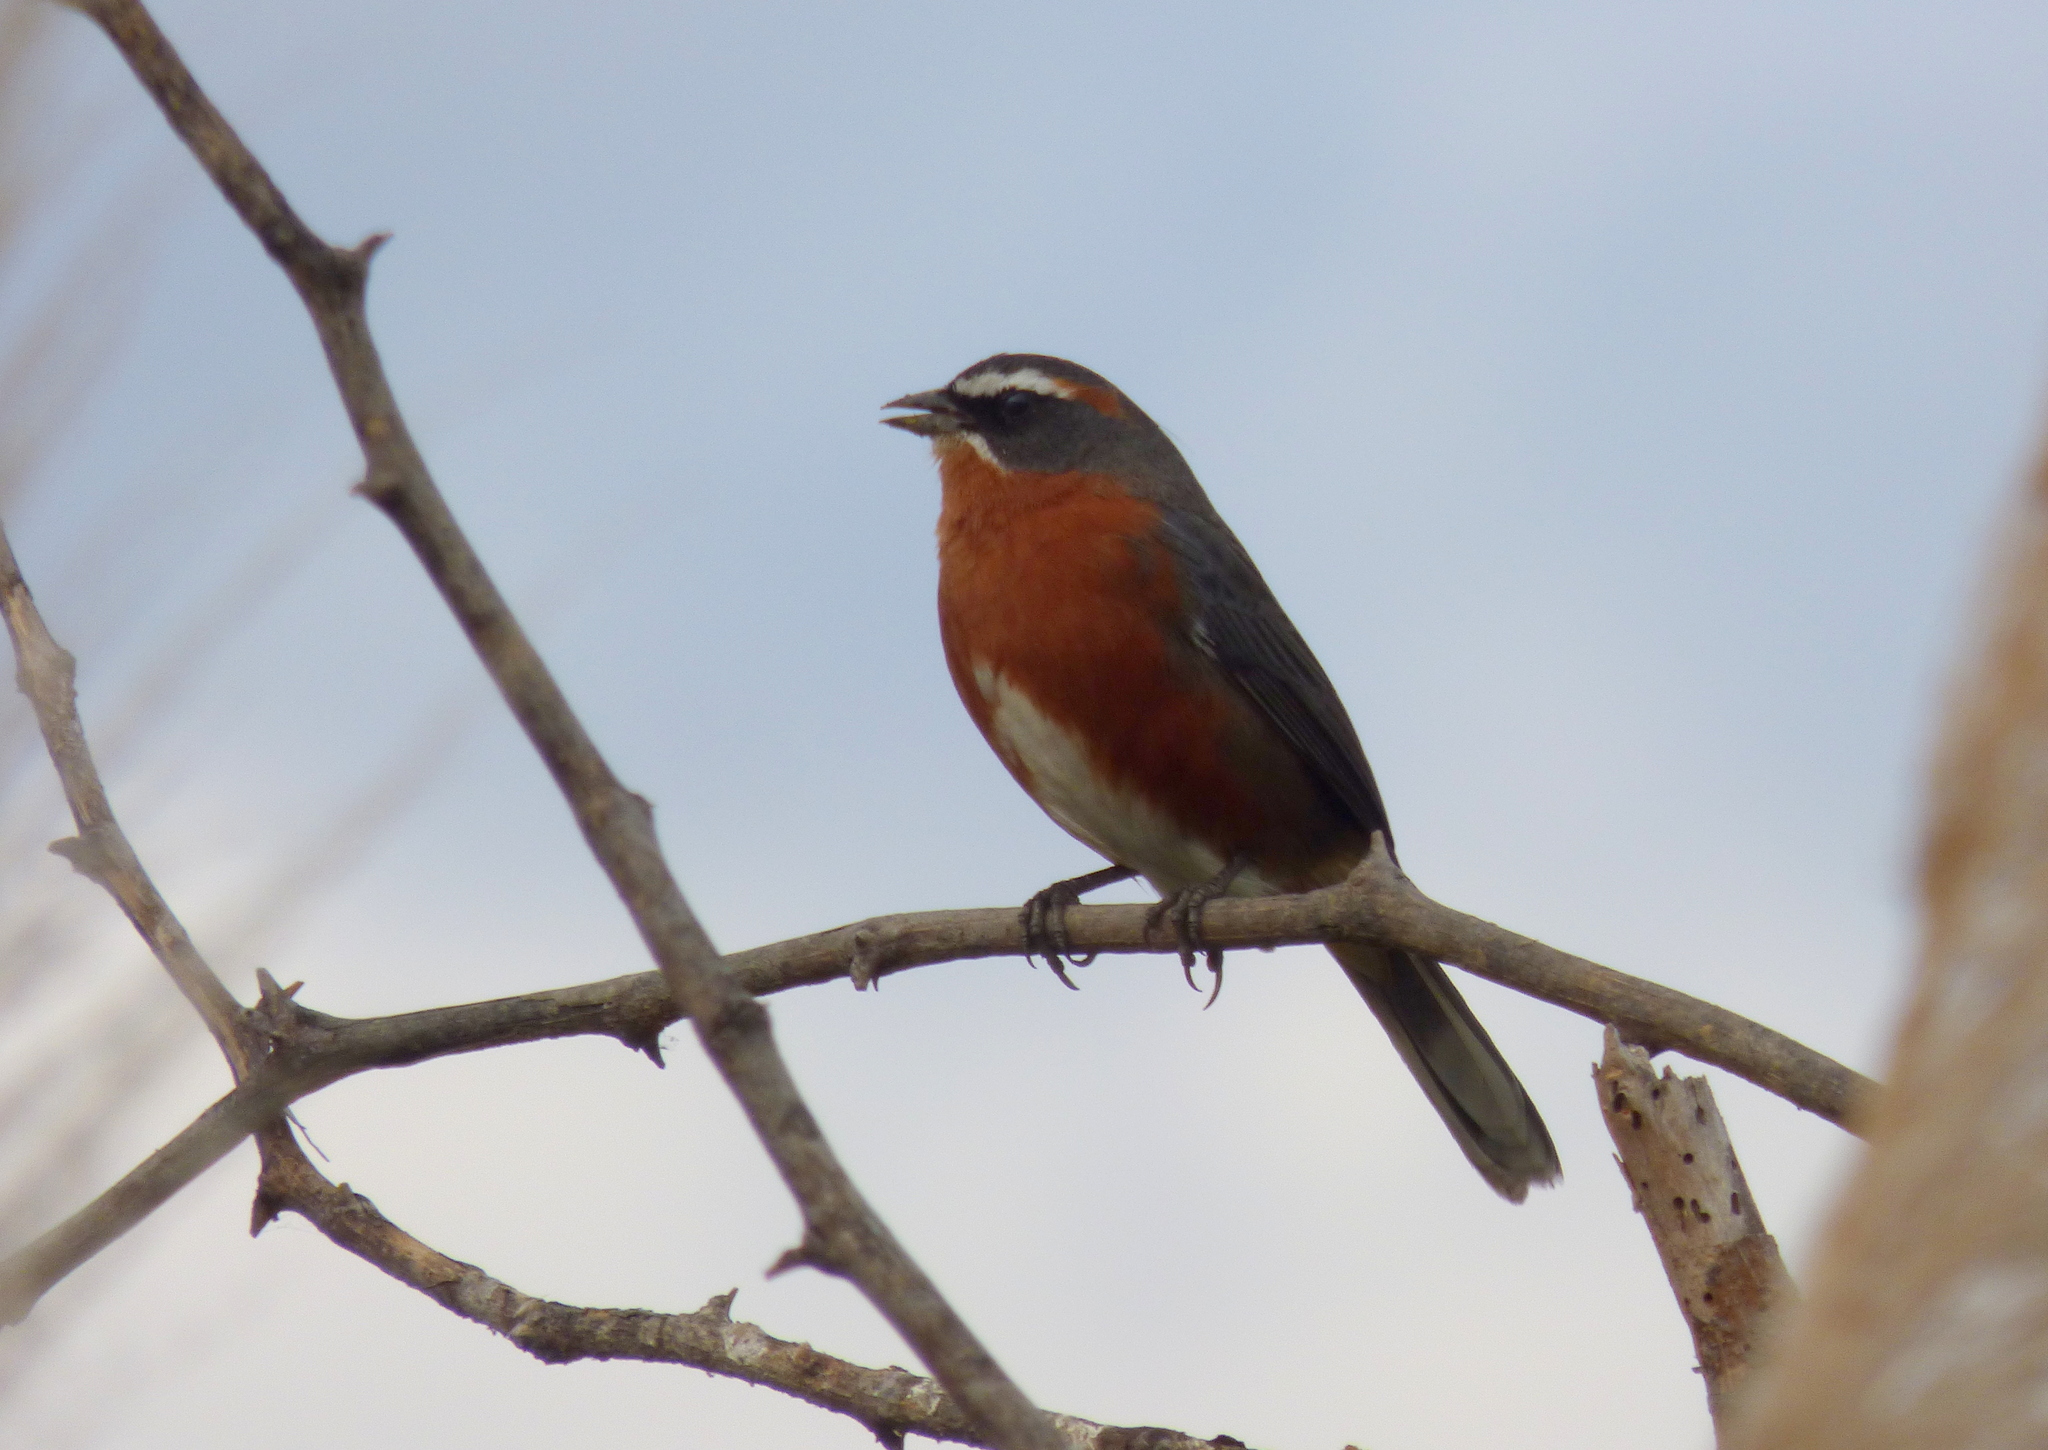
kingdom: Animalia
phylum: Chordata
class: Aves
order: Passeriformes
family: Thraupidae
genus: Poospiza
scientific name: Poospiza nigrorufa
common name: Black-and-rufous warbling finch
